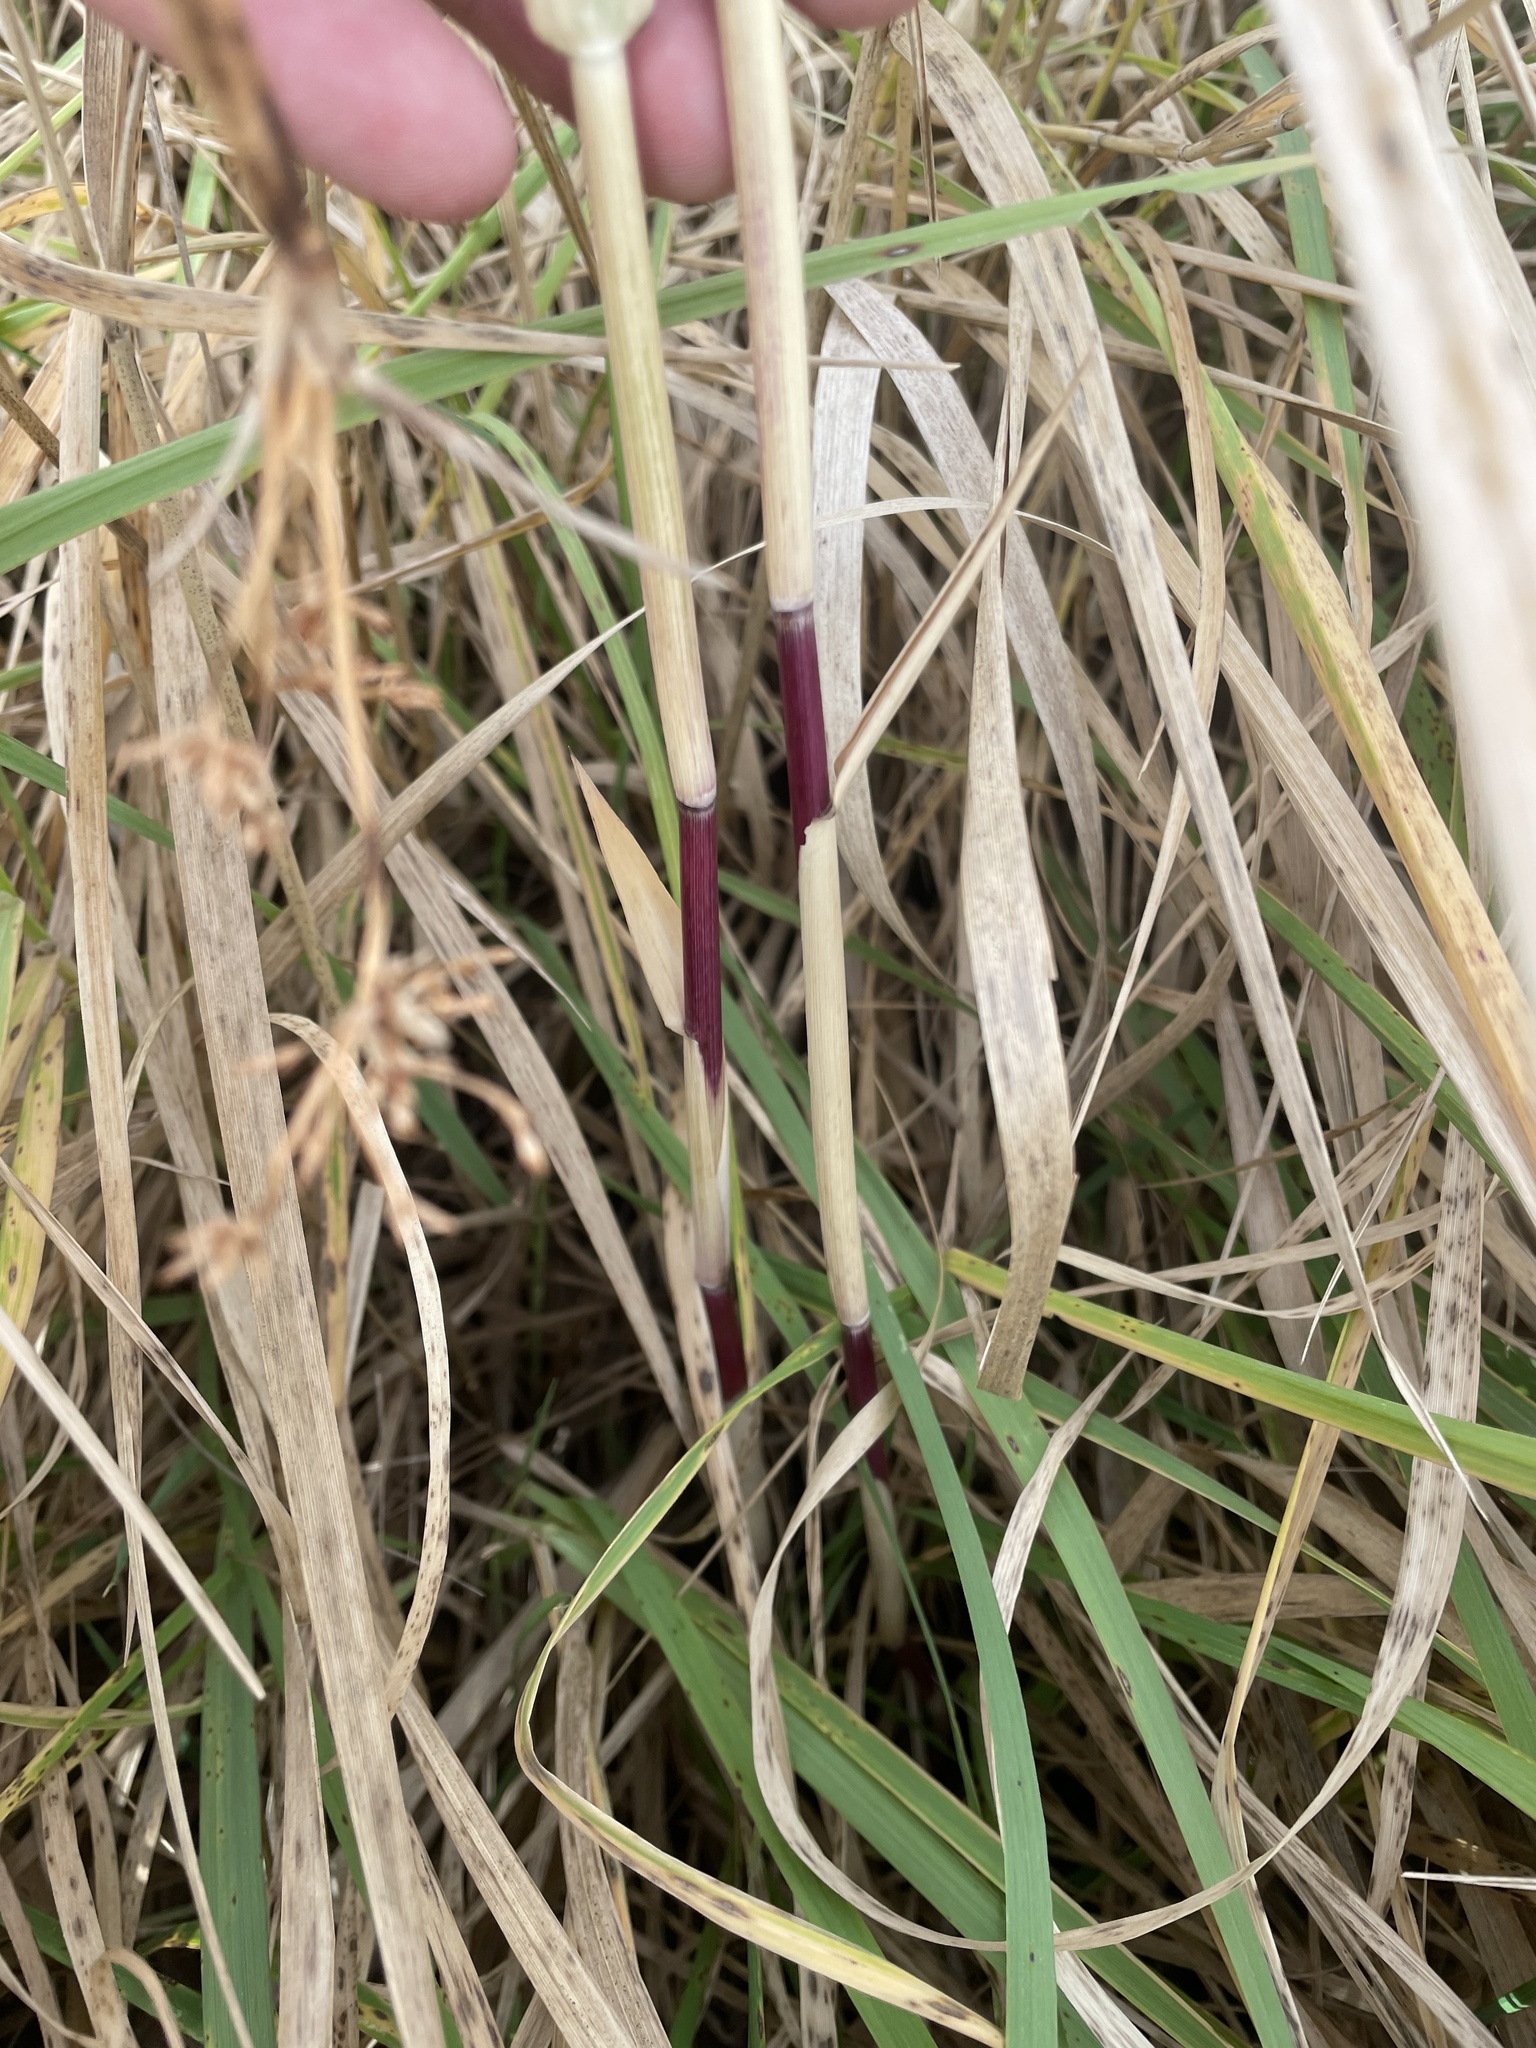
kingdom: Plantae
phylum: Tracheophyta
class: Liliopsida
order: Poales
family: Poaceae
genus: Phragmites
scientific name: Phragmites australis
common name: Common reed
